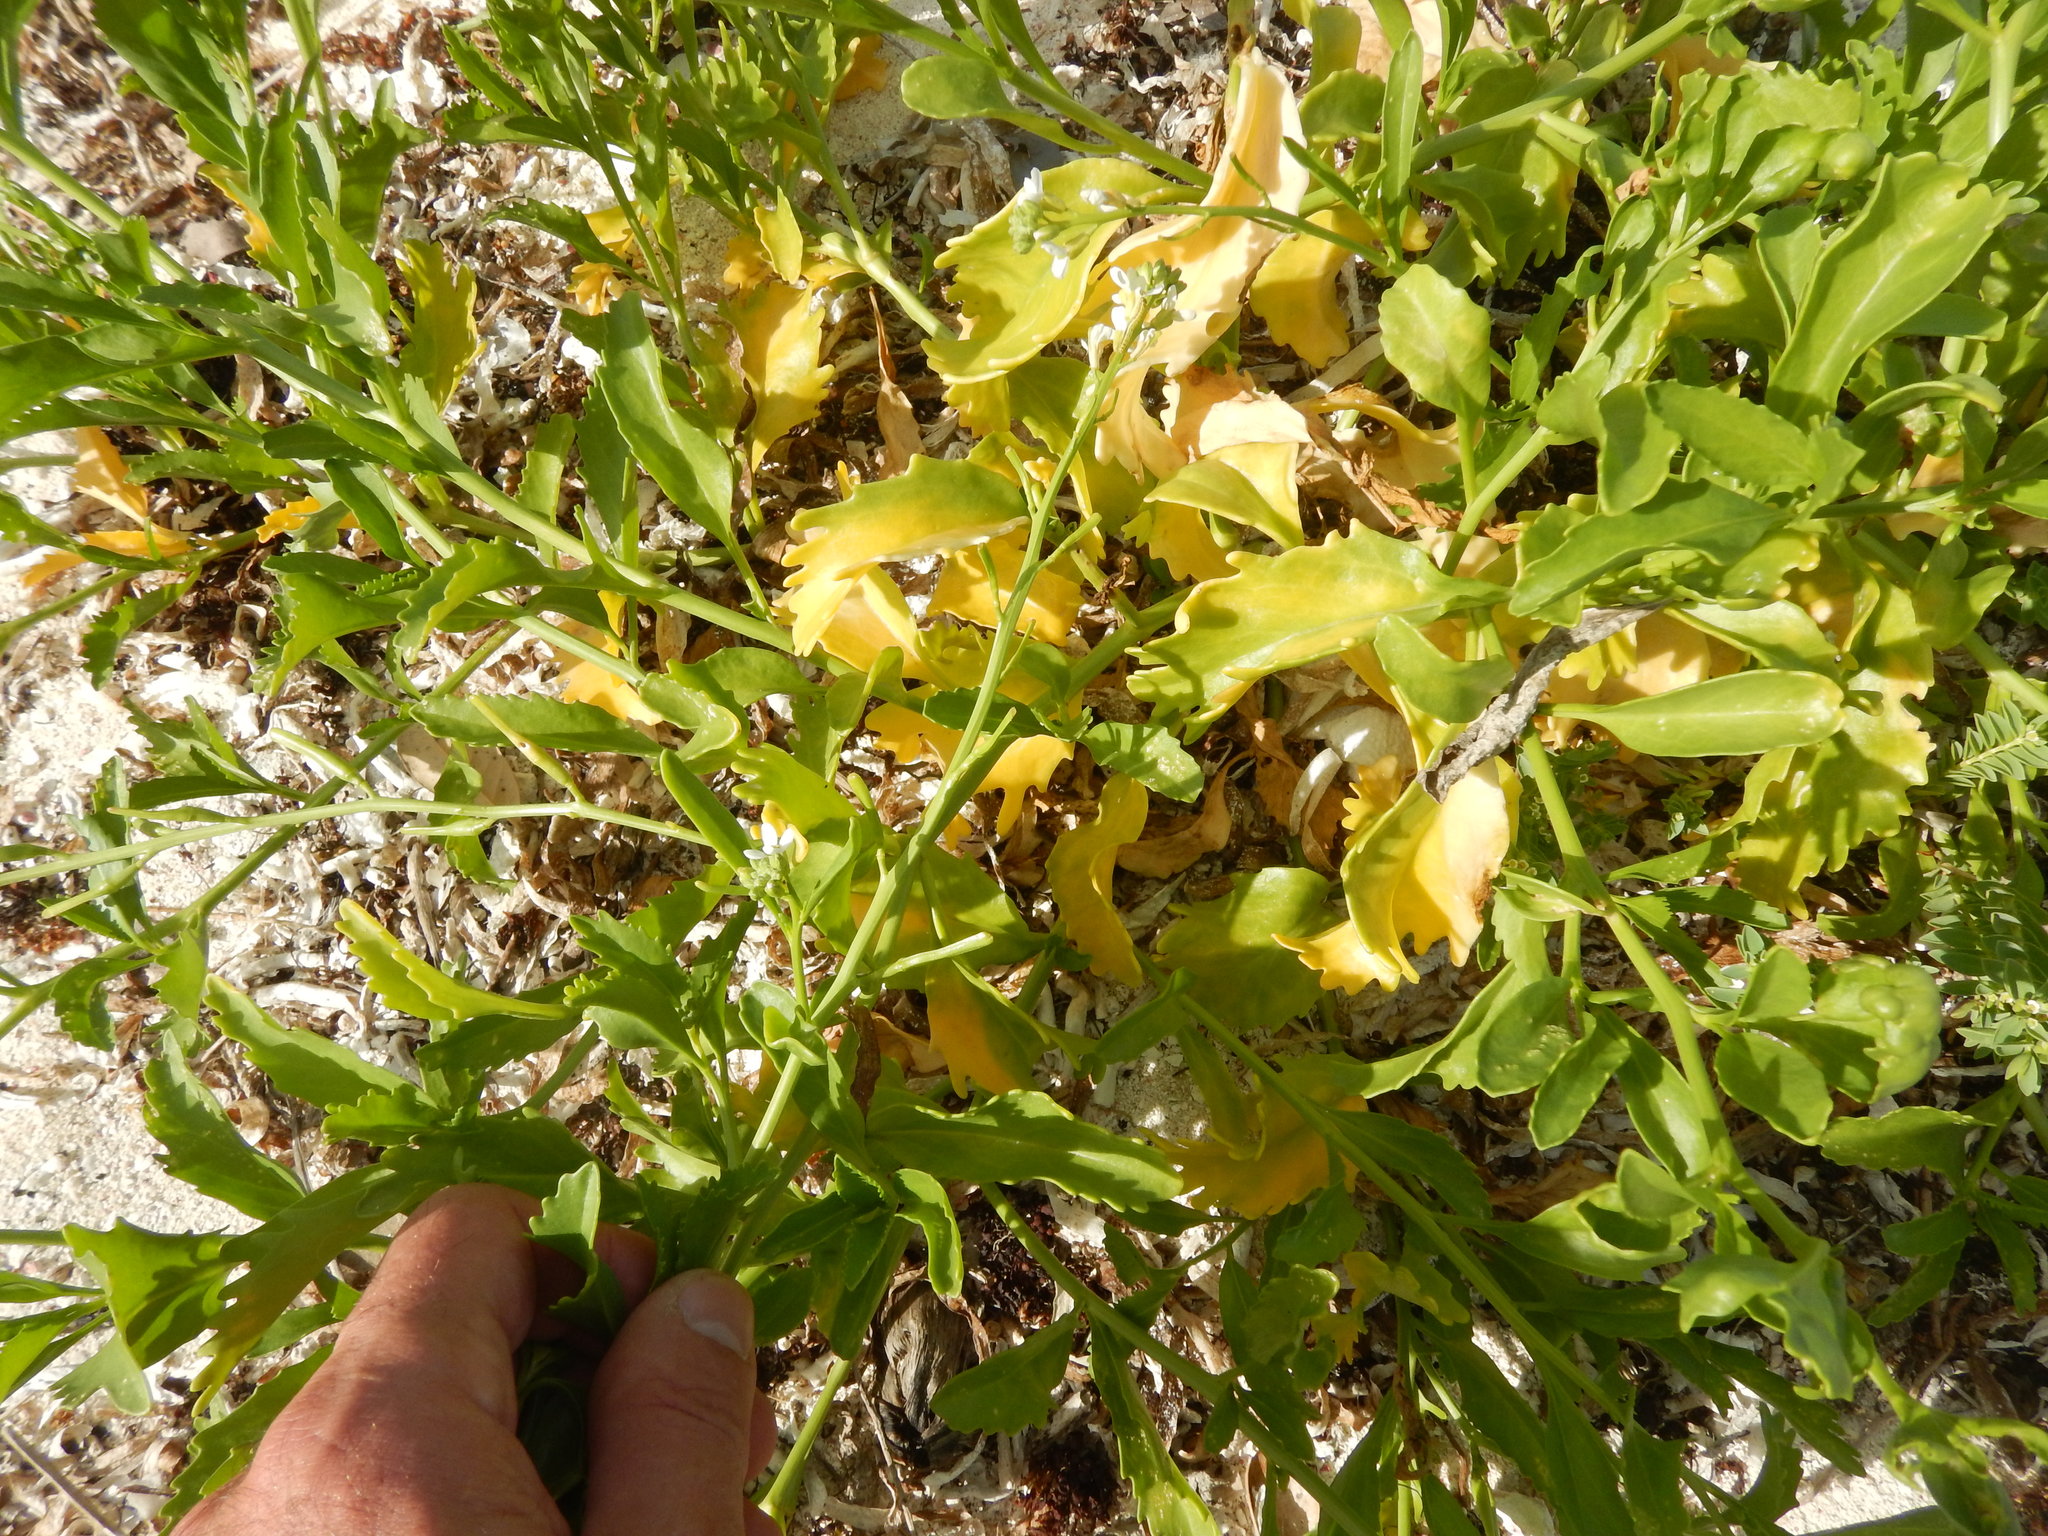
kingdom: Plantae
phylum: Tracheophyta
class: Magnoliopsida
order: Brassicales
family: Brassicaceae
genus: Cakile
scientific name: Cakile lanceolata
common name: Sea rocket
